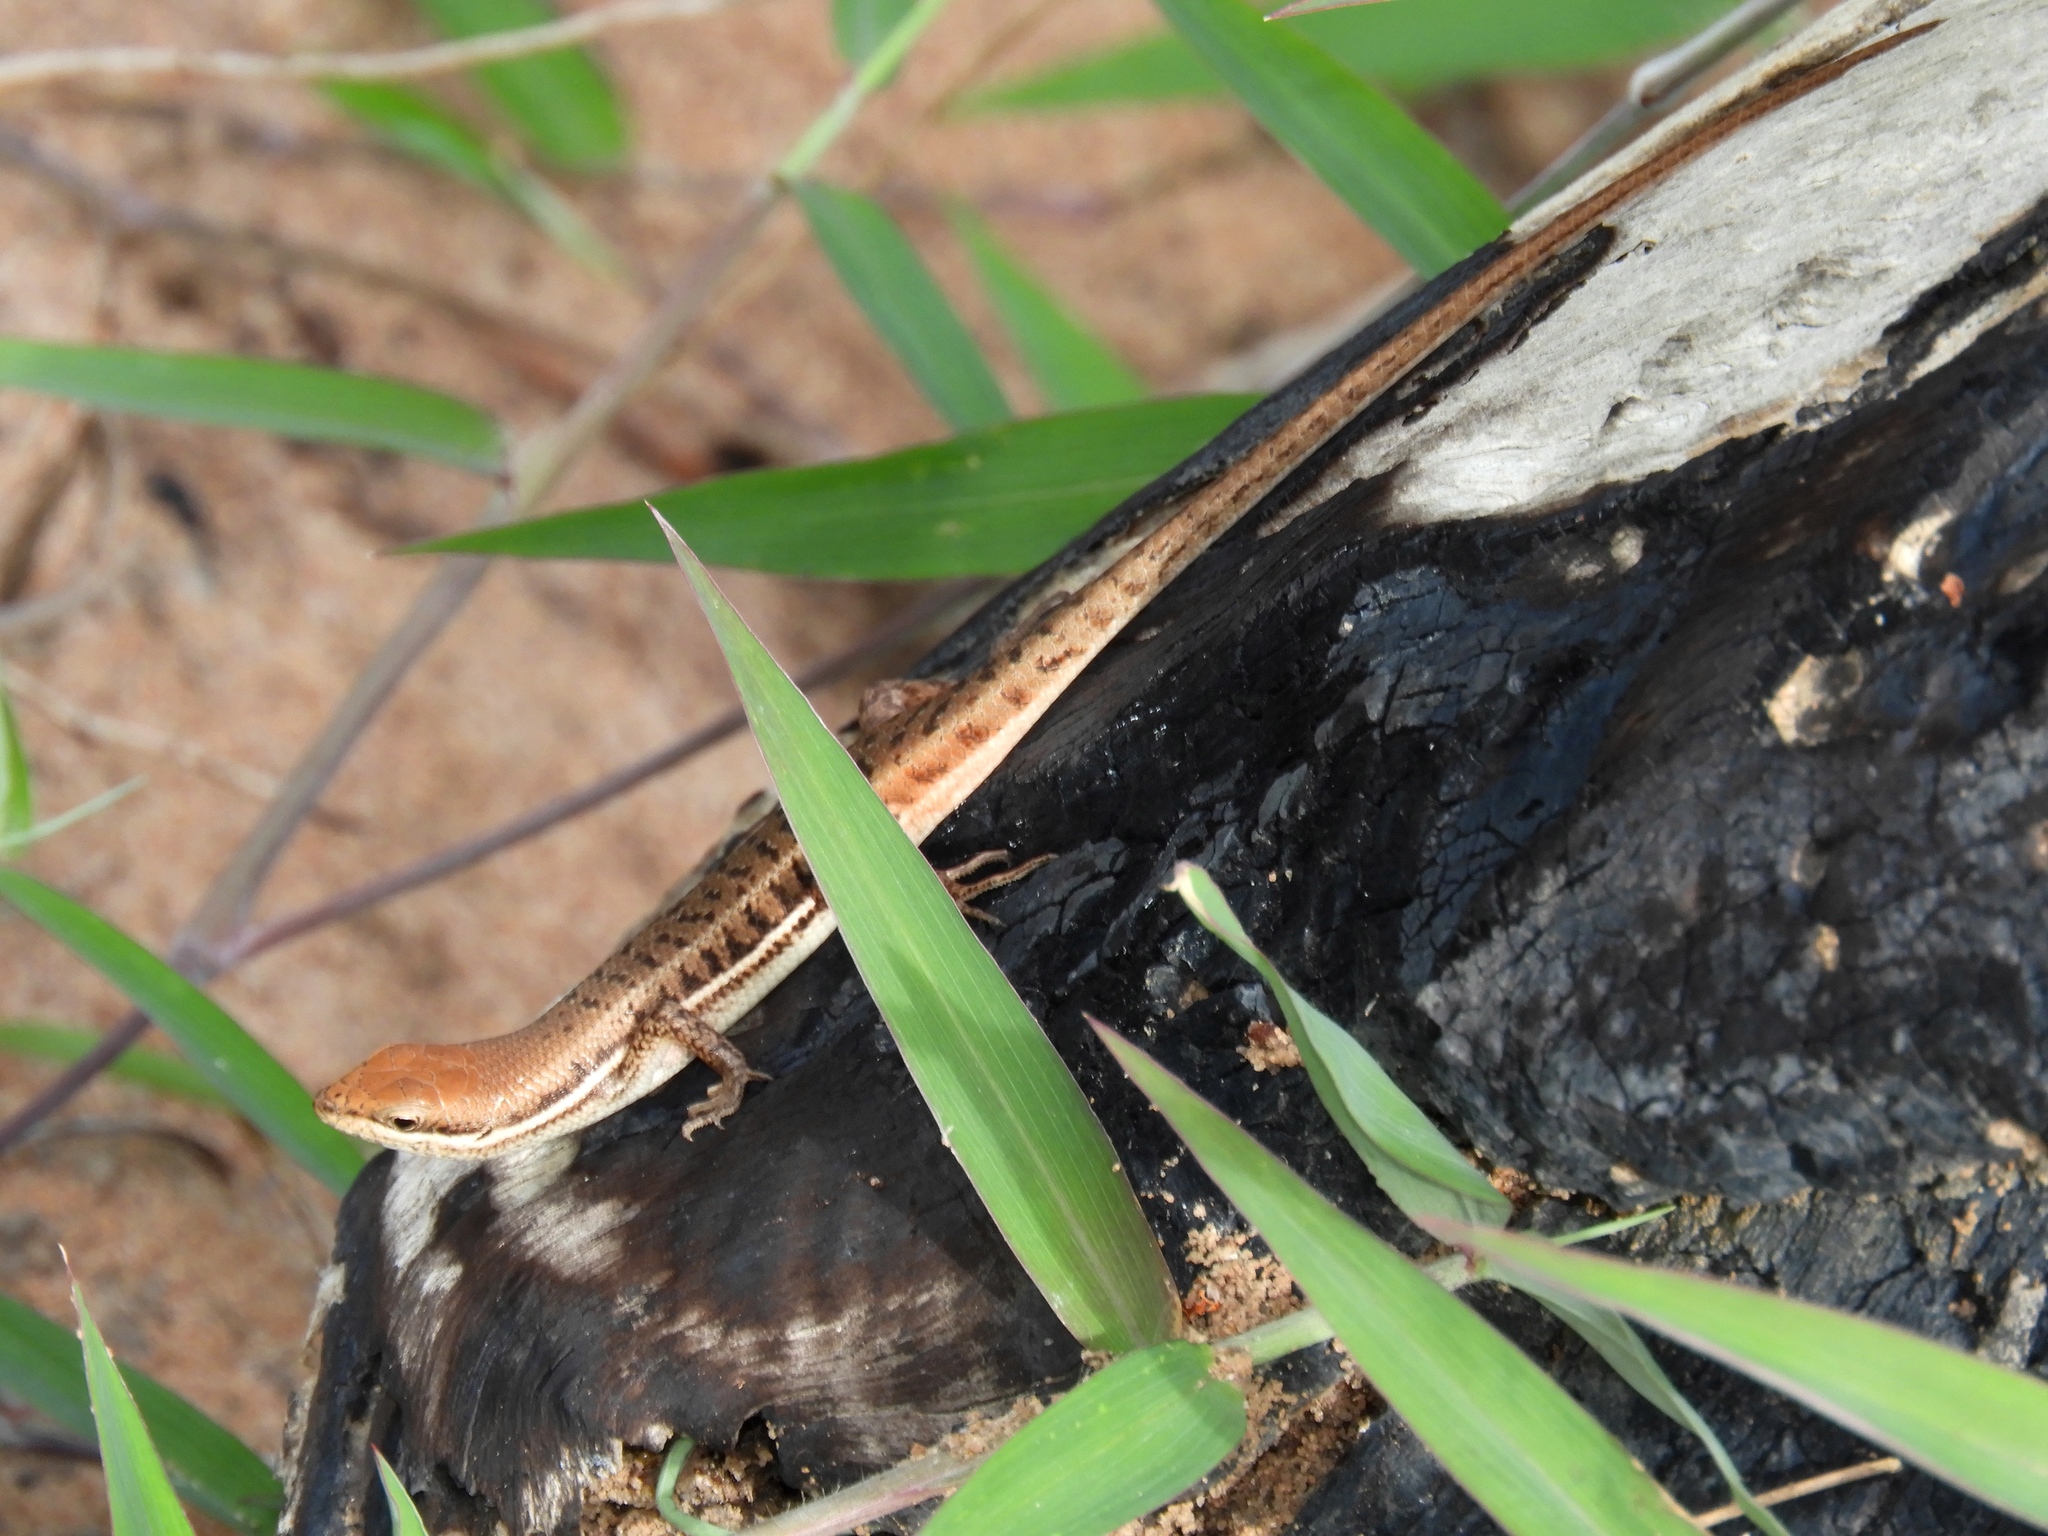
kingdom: Animalia
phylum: Chordata
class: Squamata
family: Scincidae
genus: Trachylepis
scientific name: Trachylepis varia
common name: Eastern variable skink
